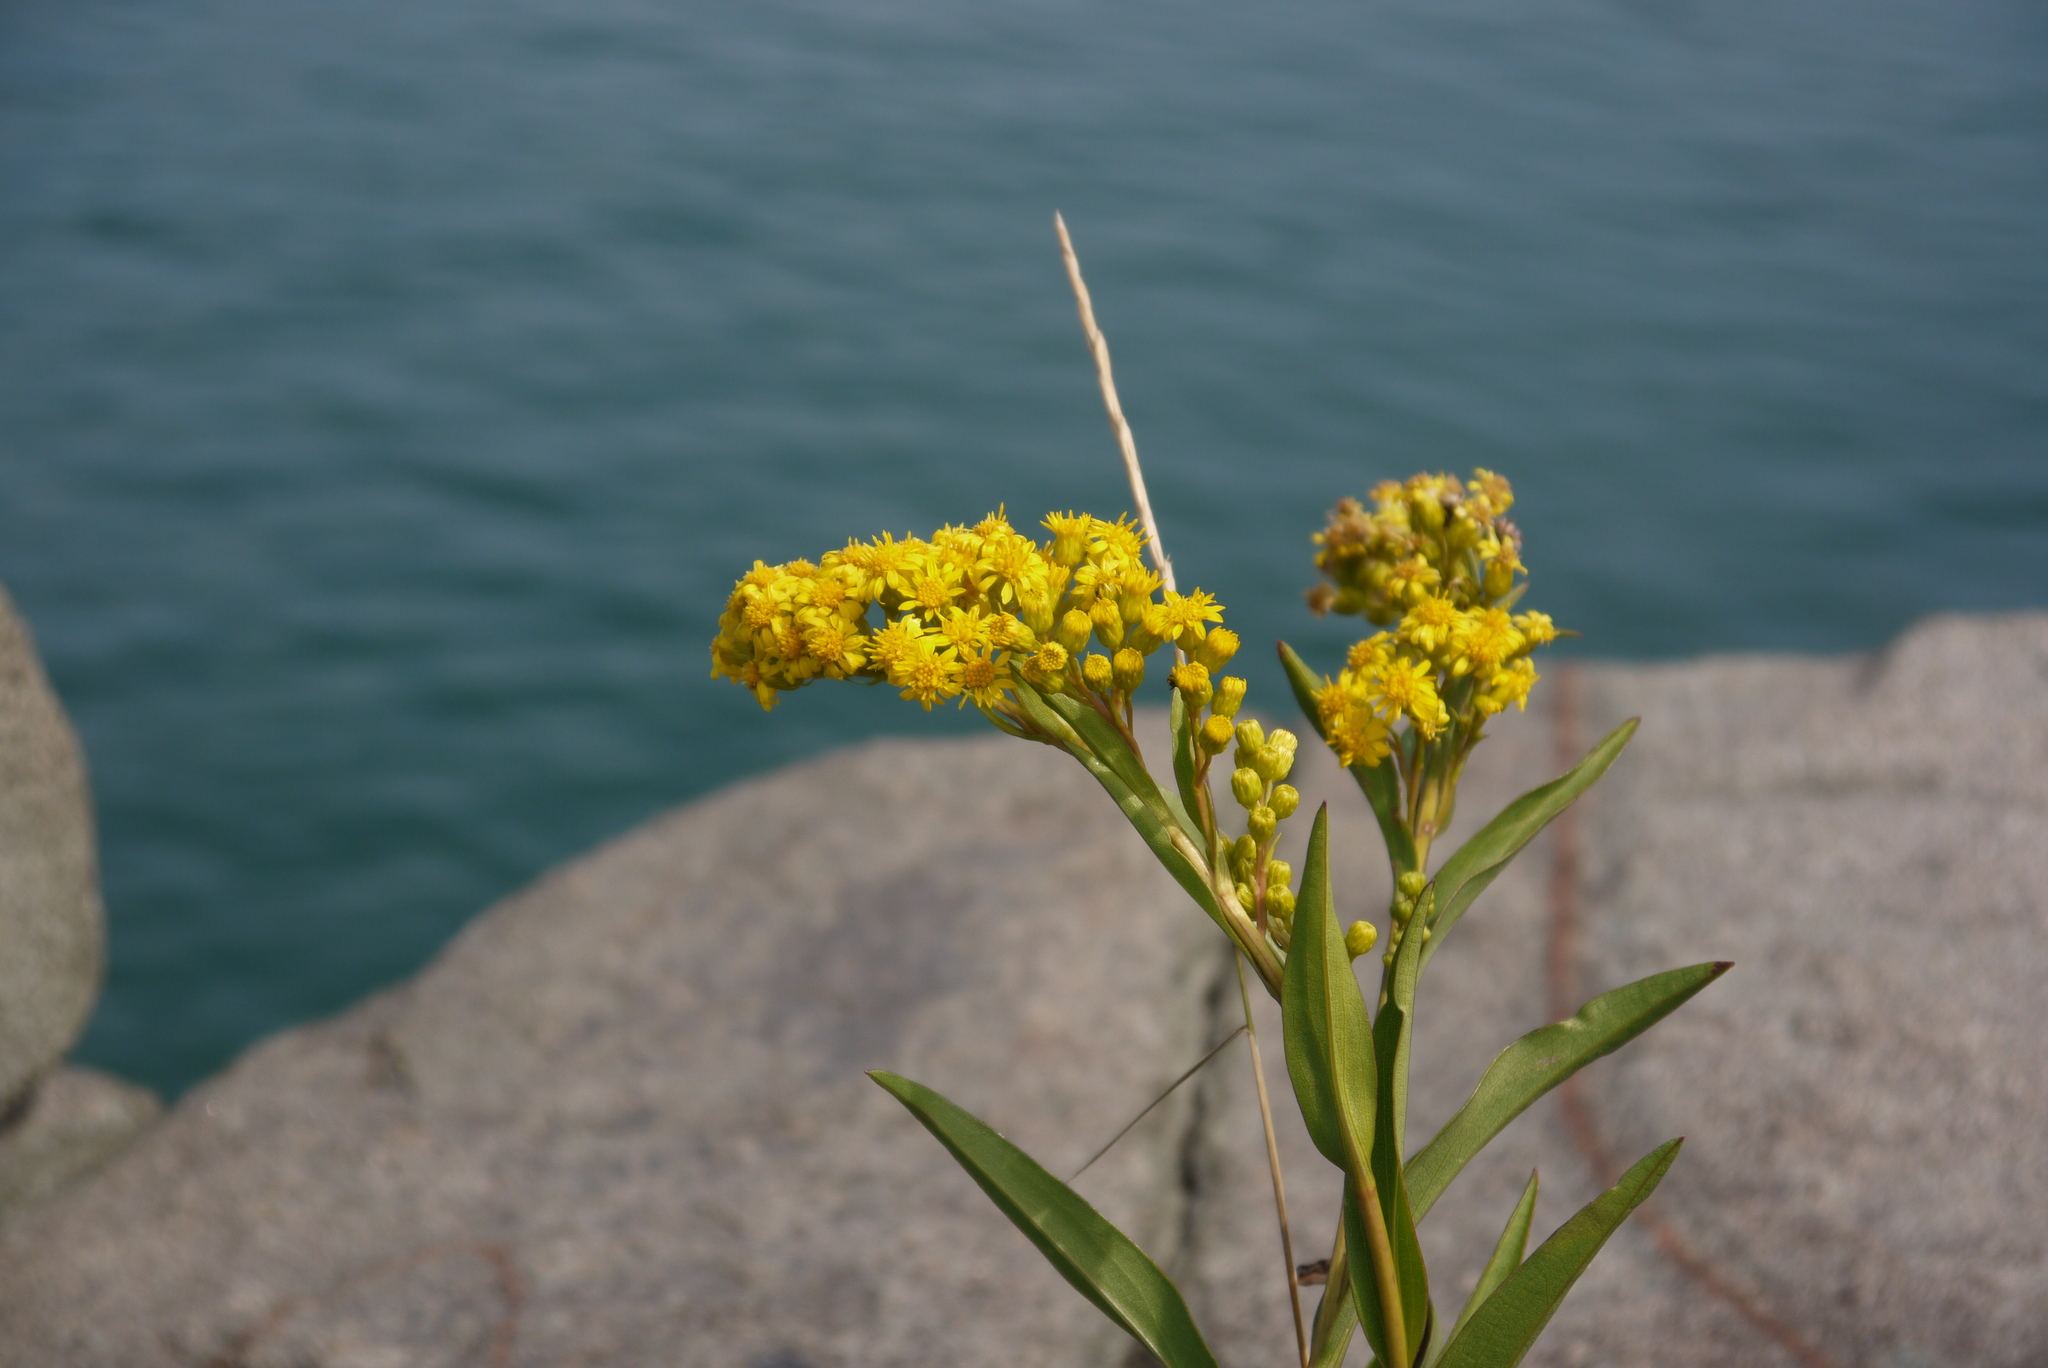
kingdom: Plantae
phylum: Tracheophyta
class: Magnoliopsida
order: Asterales
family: Asteraceae
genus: Solidago
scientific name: Solidago sempervirens
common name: Salt-marsh goldenrod
